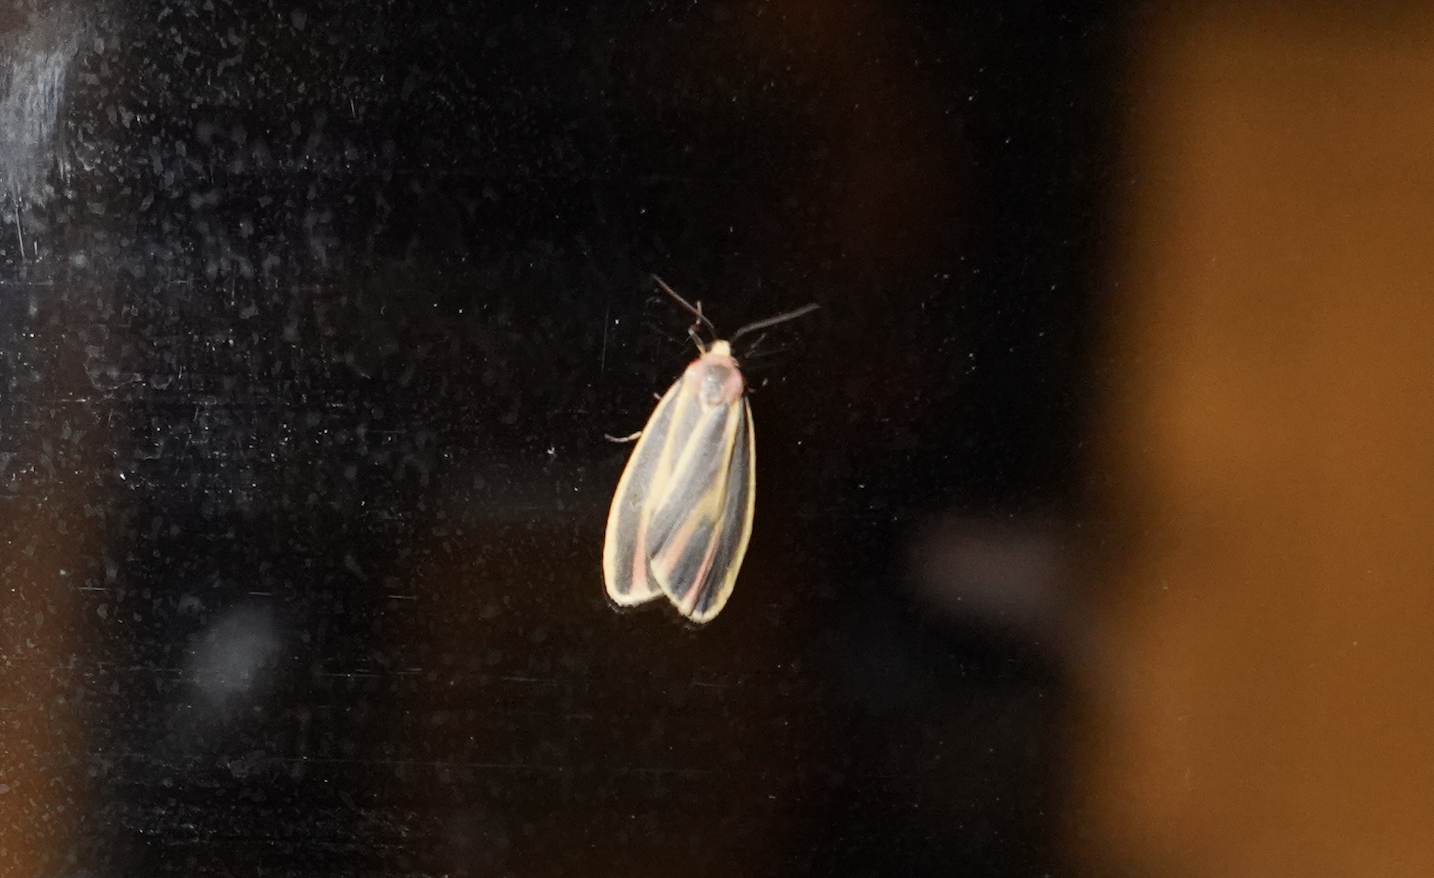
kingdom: Animalia
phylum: Arthropoda
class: Insecta
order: Lepidoptera
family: Erebidae
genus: Hypoprepia
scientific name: Hypoprepia fucosa
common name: Painted lichen moth
